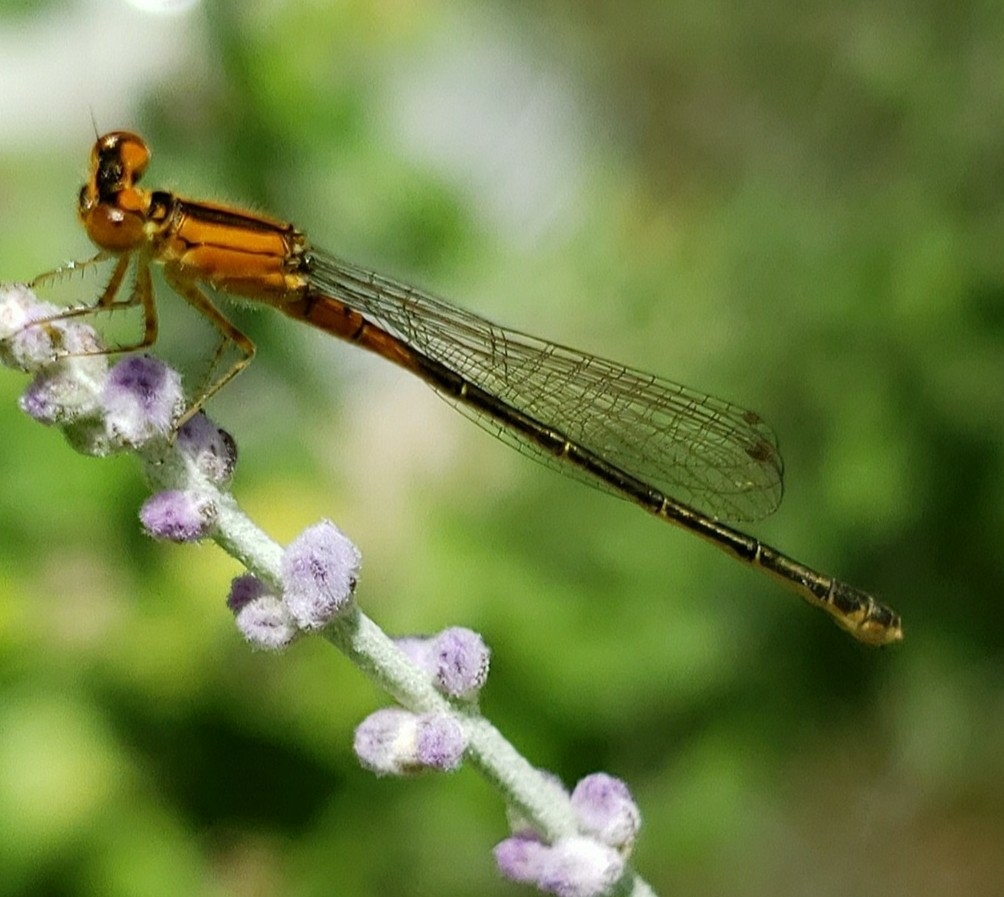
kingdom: Animalia
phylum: Arthropoda
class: Insecta
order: Odonata
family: Coenagrionidae
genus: Ischnura
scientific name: Ischnura verticalis
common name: Eastern forktail
